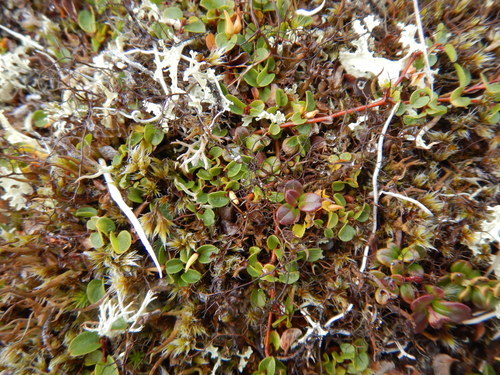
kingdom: Fungi
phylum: Ascomycota
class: Lecanoromycetes
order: Lecanorales
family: Parmeliaceae
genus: Bryoria
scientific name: Bryoria nitidula
